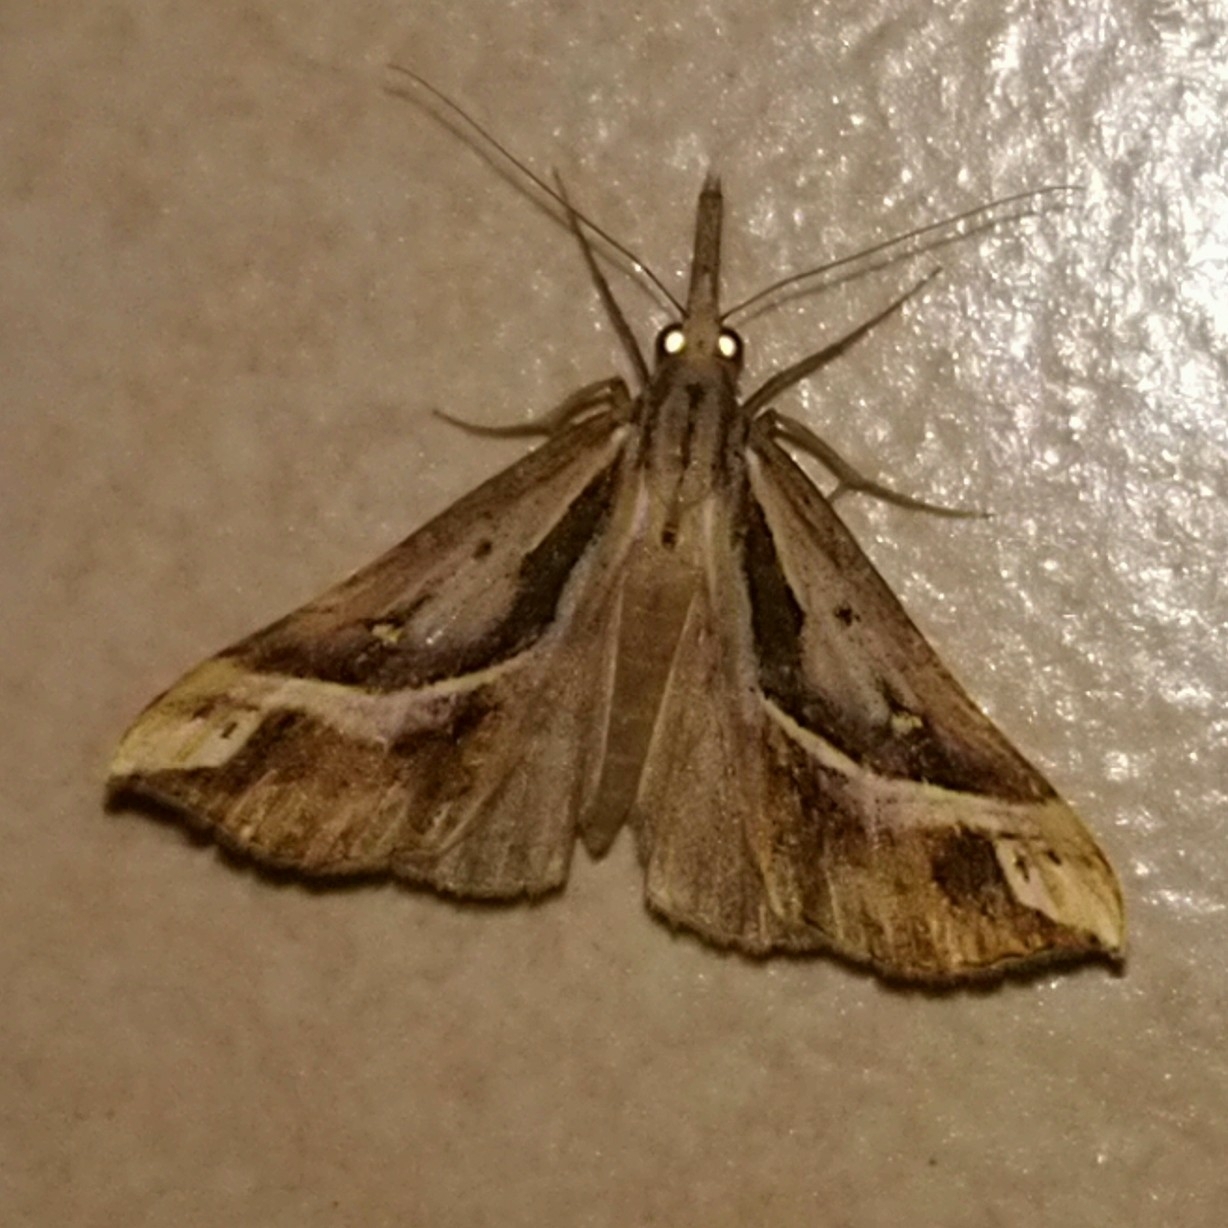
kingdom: Animalia
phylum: Arthropoda
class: Insecta
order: Lepidoptera
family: Erebidae
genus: Hypena
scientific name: Hypena senialis
